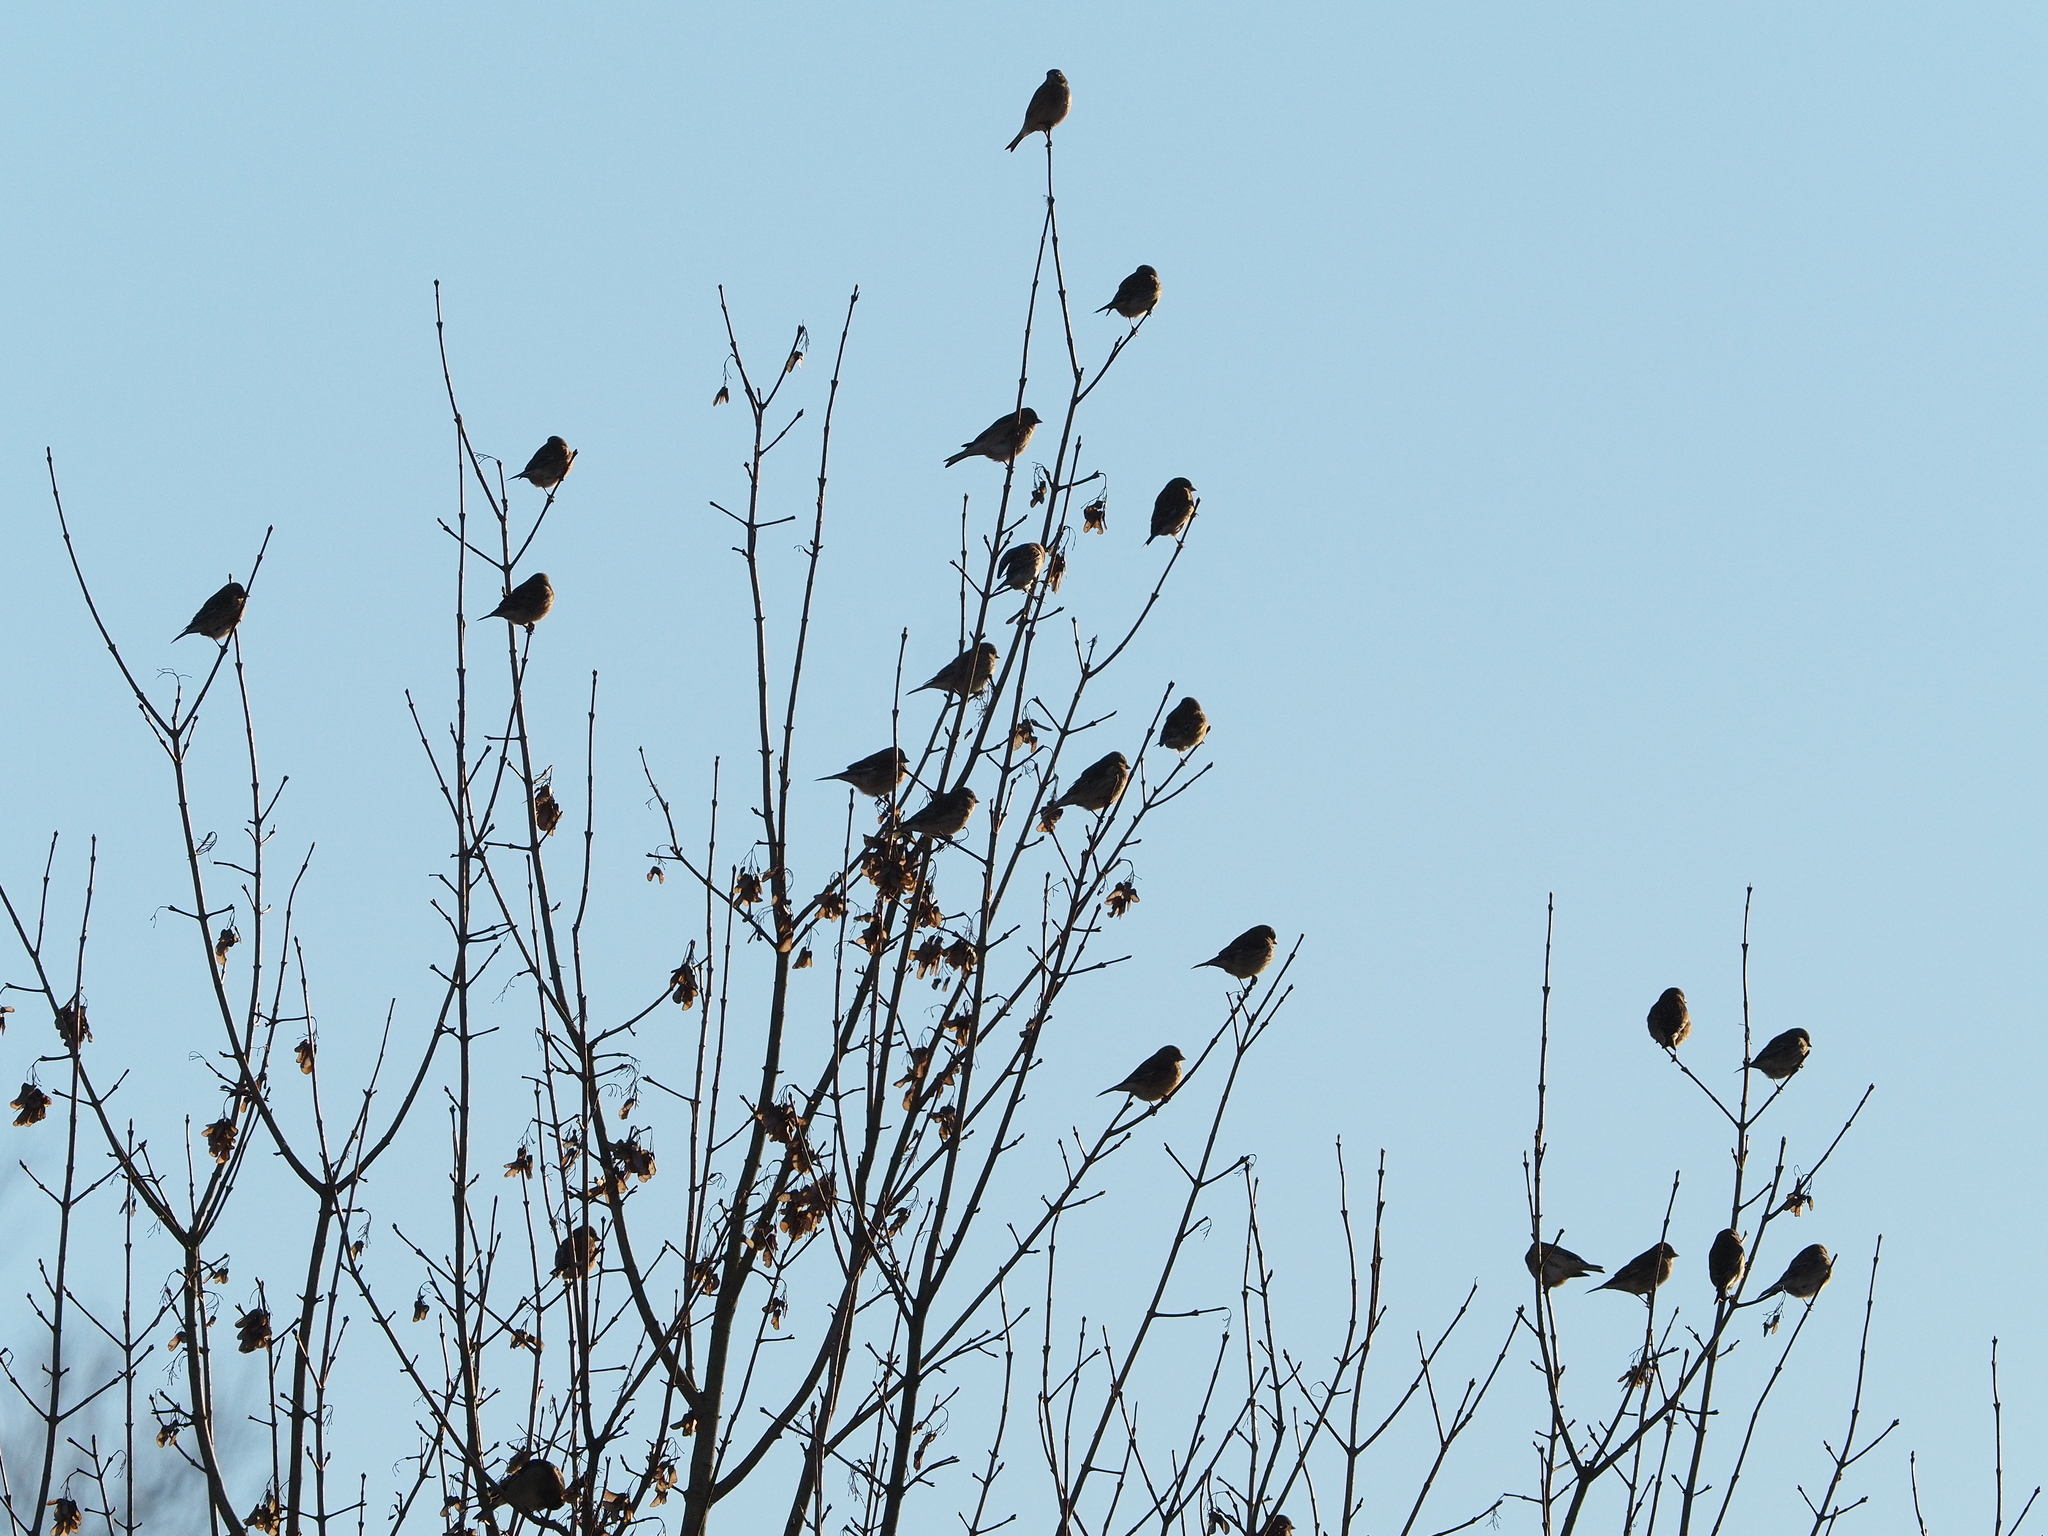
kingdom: Animalia
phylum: Chordata
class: Aves
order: Passeriformes
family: Fringillidae
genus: Linaria
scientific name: Linaria cannabina
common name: Common linnet
